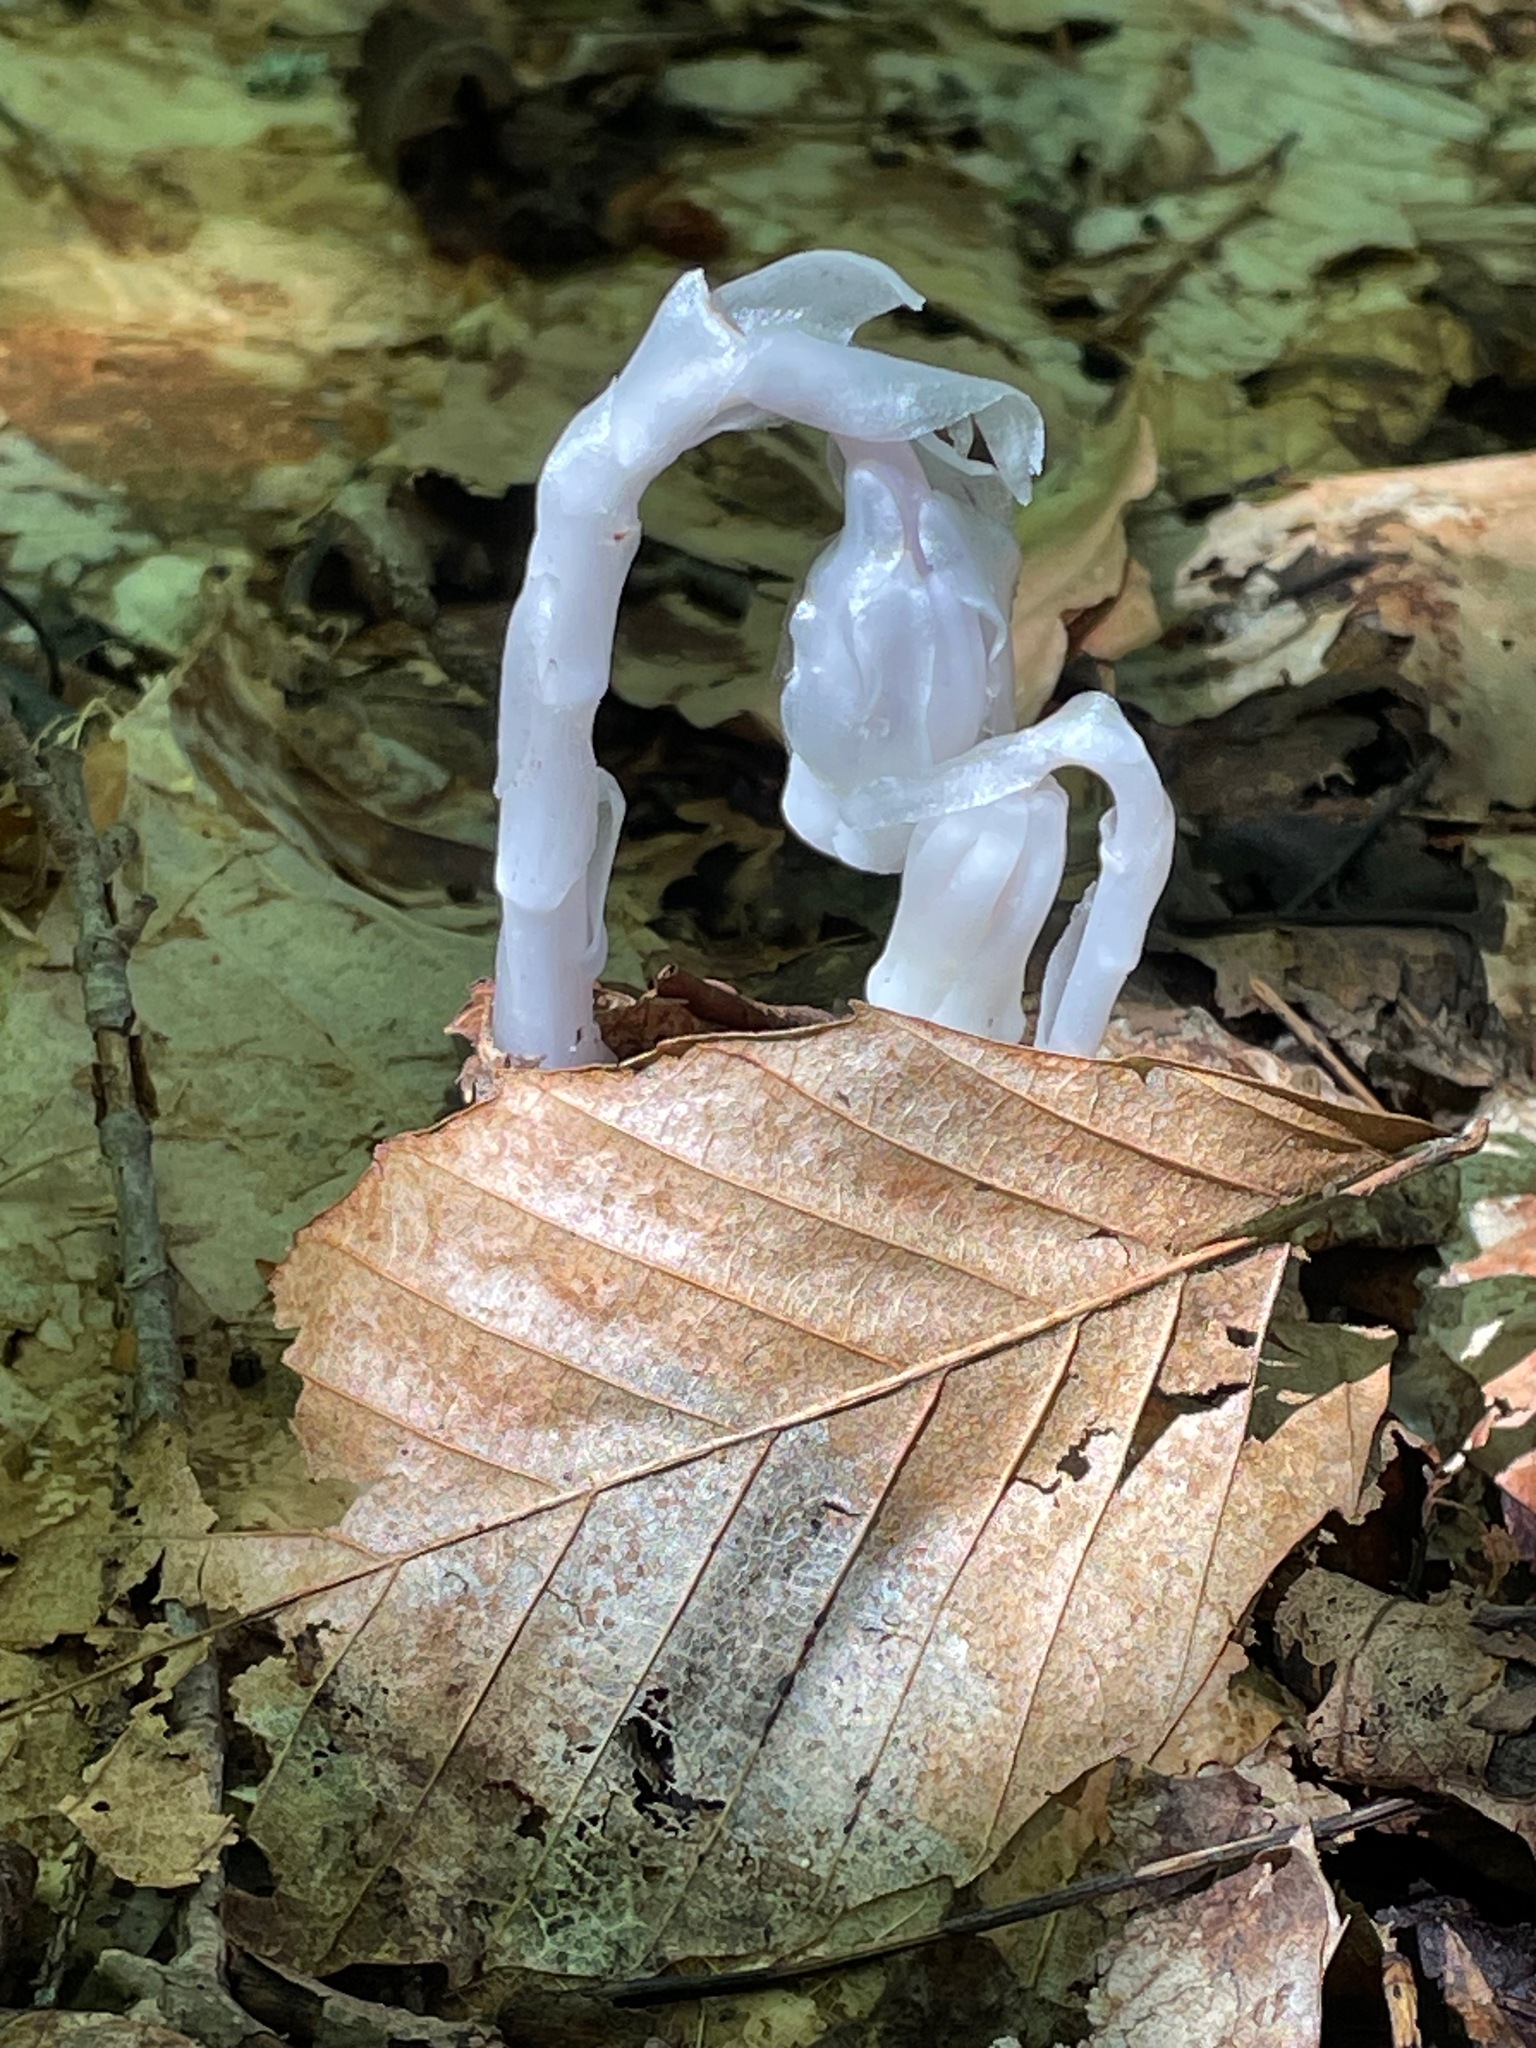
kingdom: Plantae
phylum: Tracheophyta
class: Magnoliopsida
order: Ericales
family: Ericaceae
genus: Monotropa
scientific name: Monotropa uniflora
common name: Convulsion root
